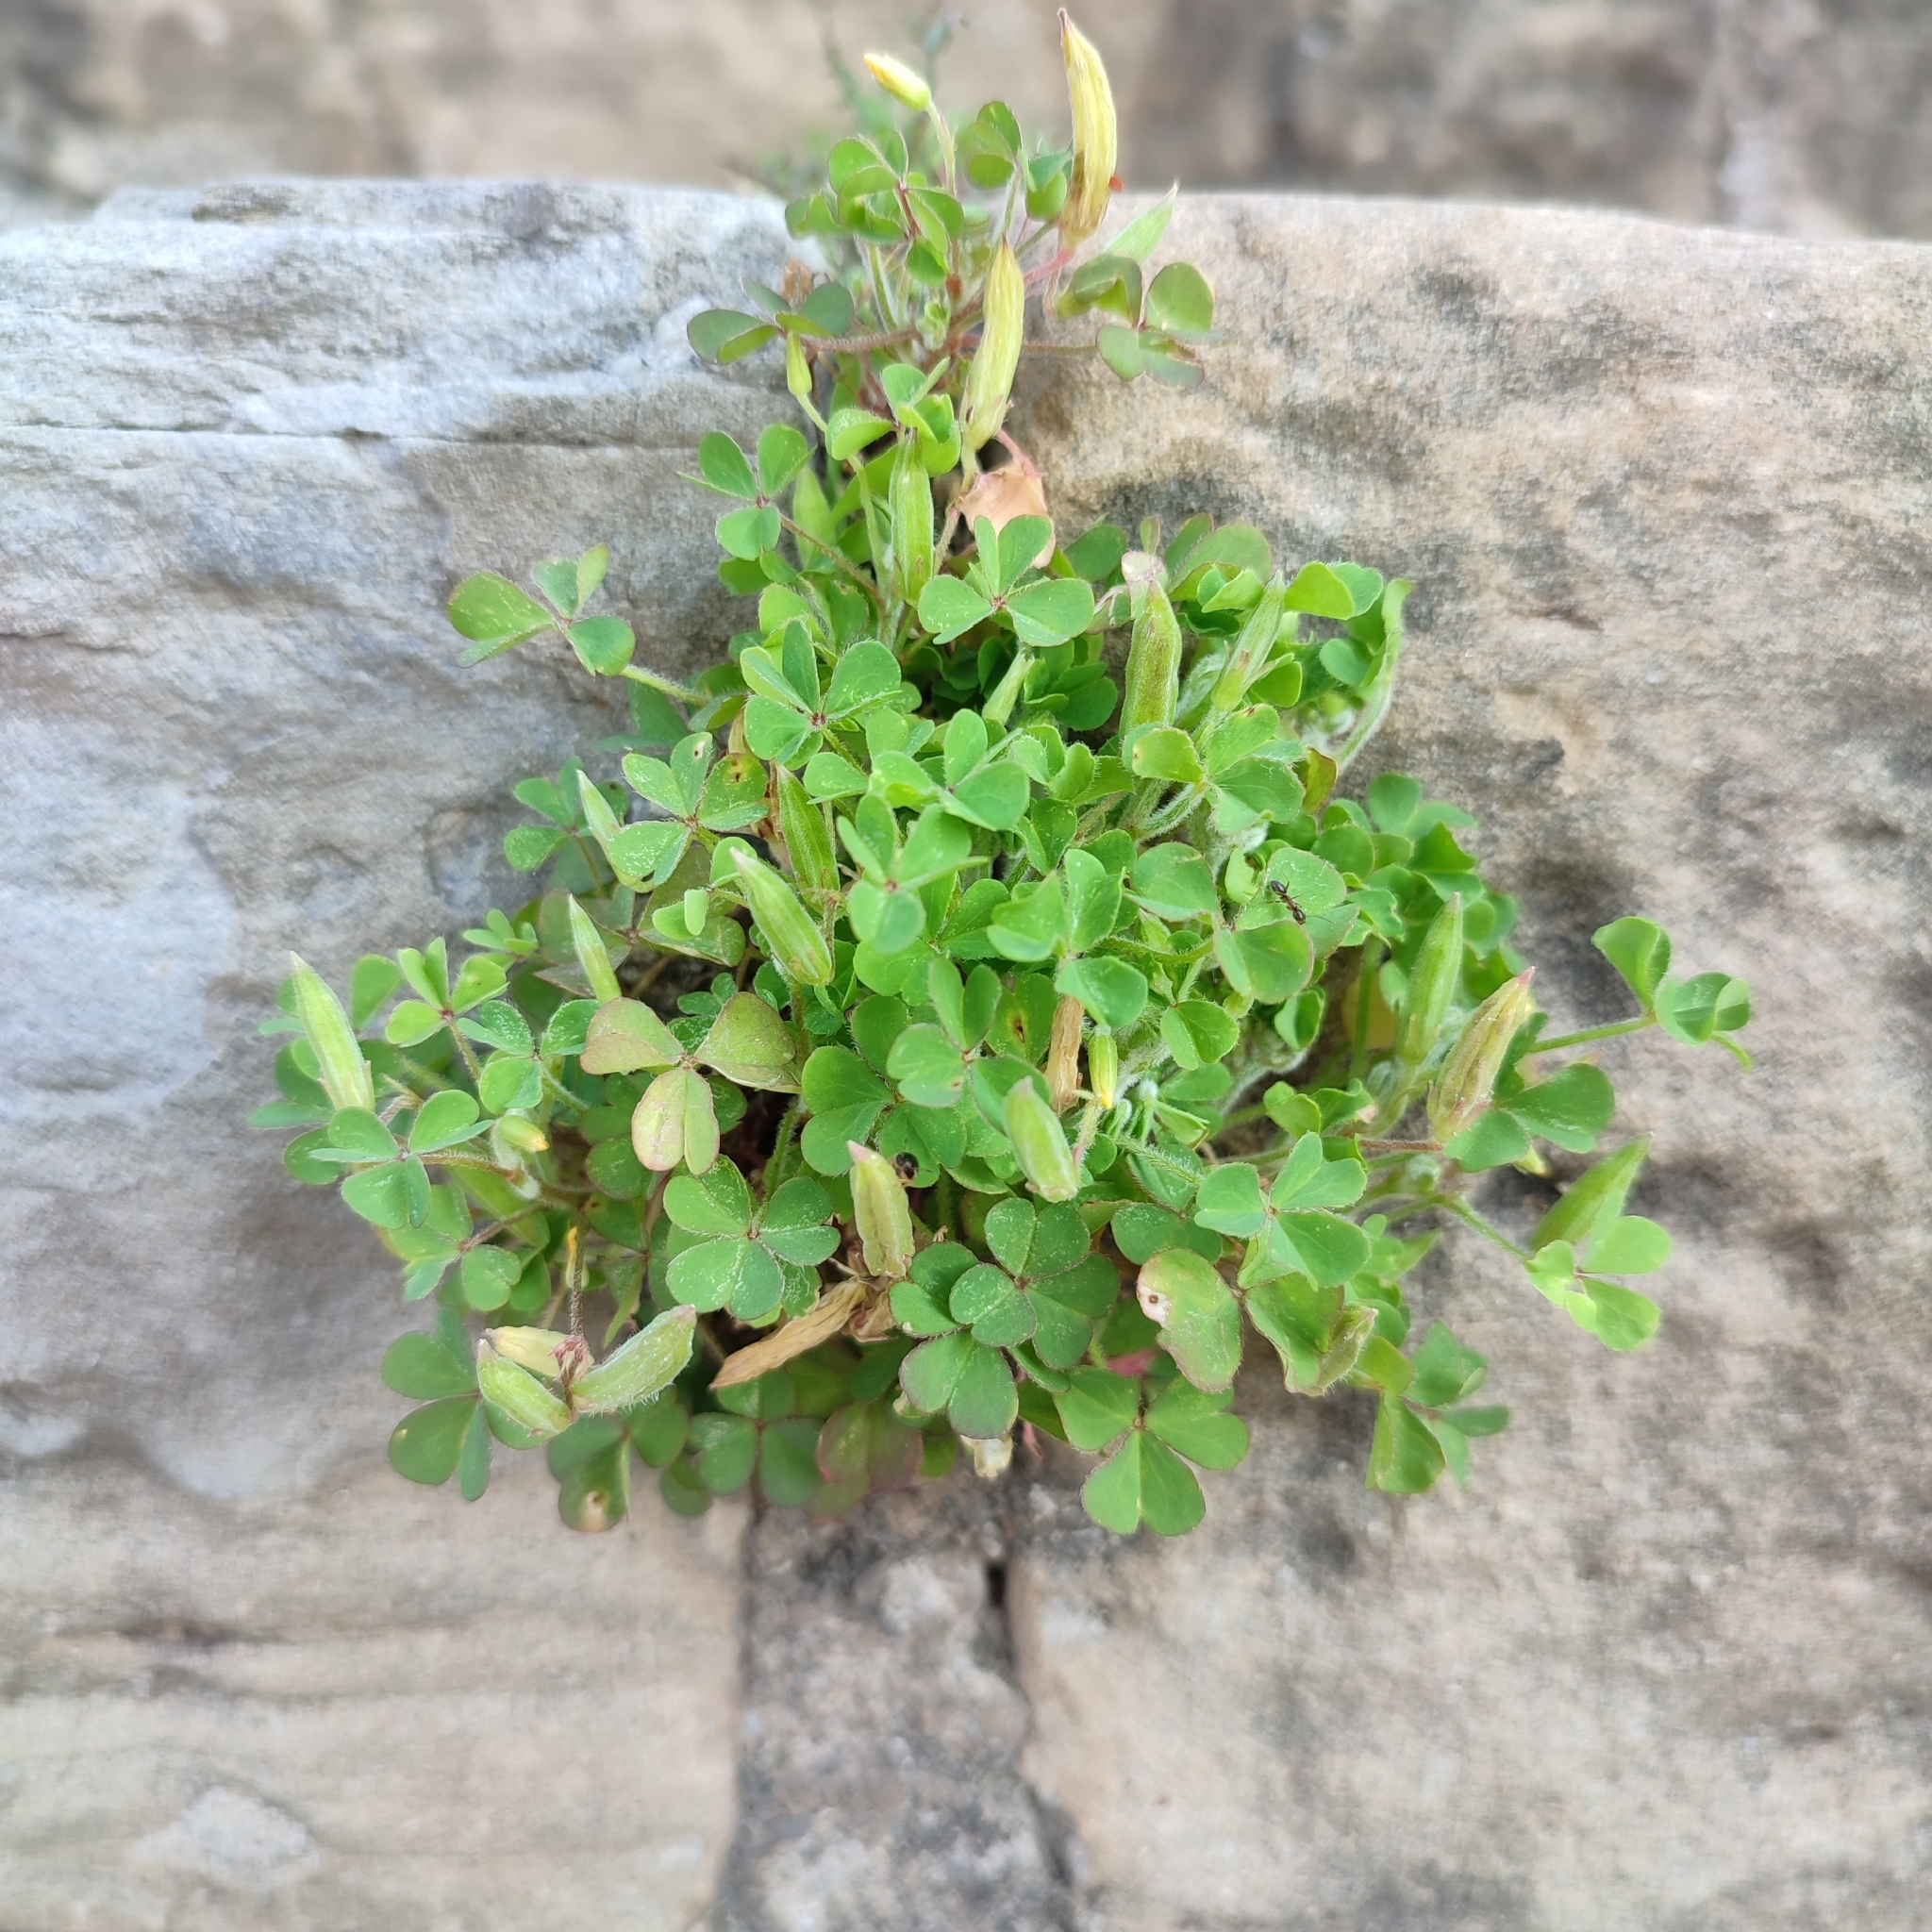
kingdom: Plantae
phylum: Tracheophyta
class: Magnoliopsida
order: Oxalidales
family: Oxalidaceae
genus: Oxalis
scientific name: Oxalis corniculata
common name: Procumbent yellow-sorrel
